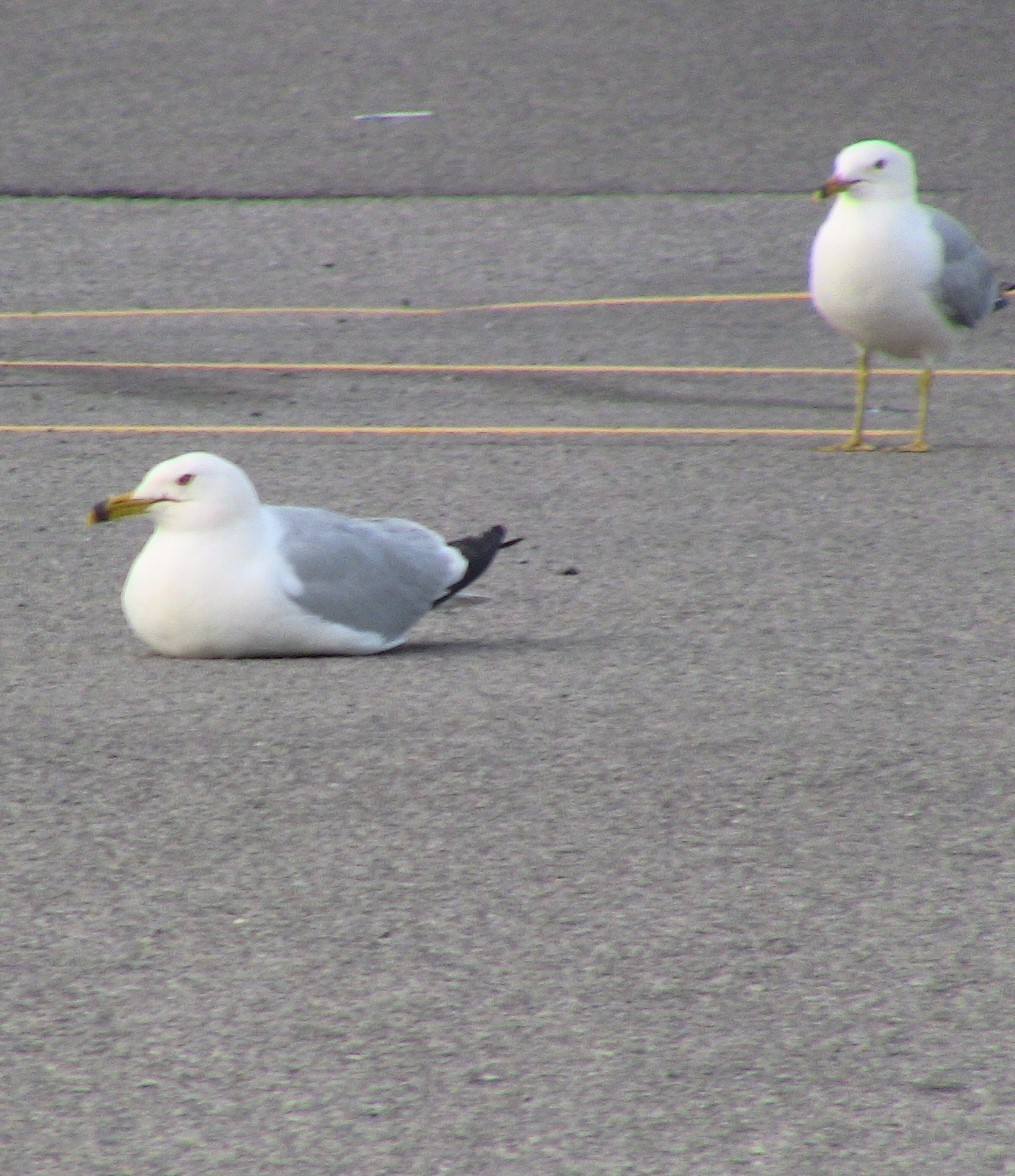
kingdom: Animalia
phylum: Chordata
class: Aves
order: Charadriiformes
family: Laridae
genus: Larus
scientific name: Larus delawarensis
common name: Ring-billed gull
